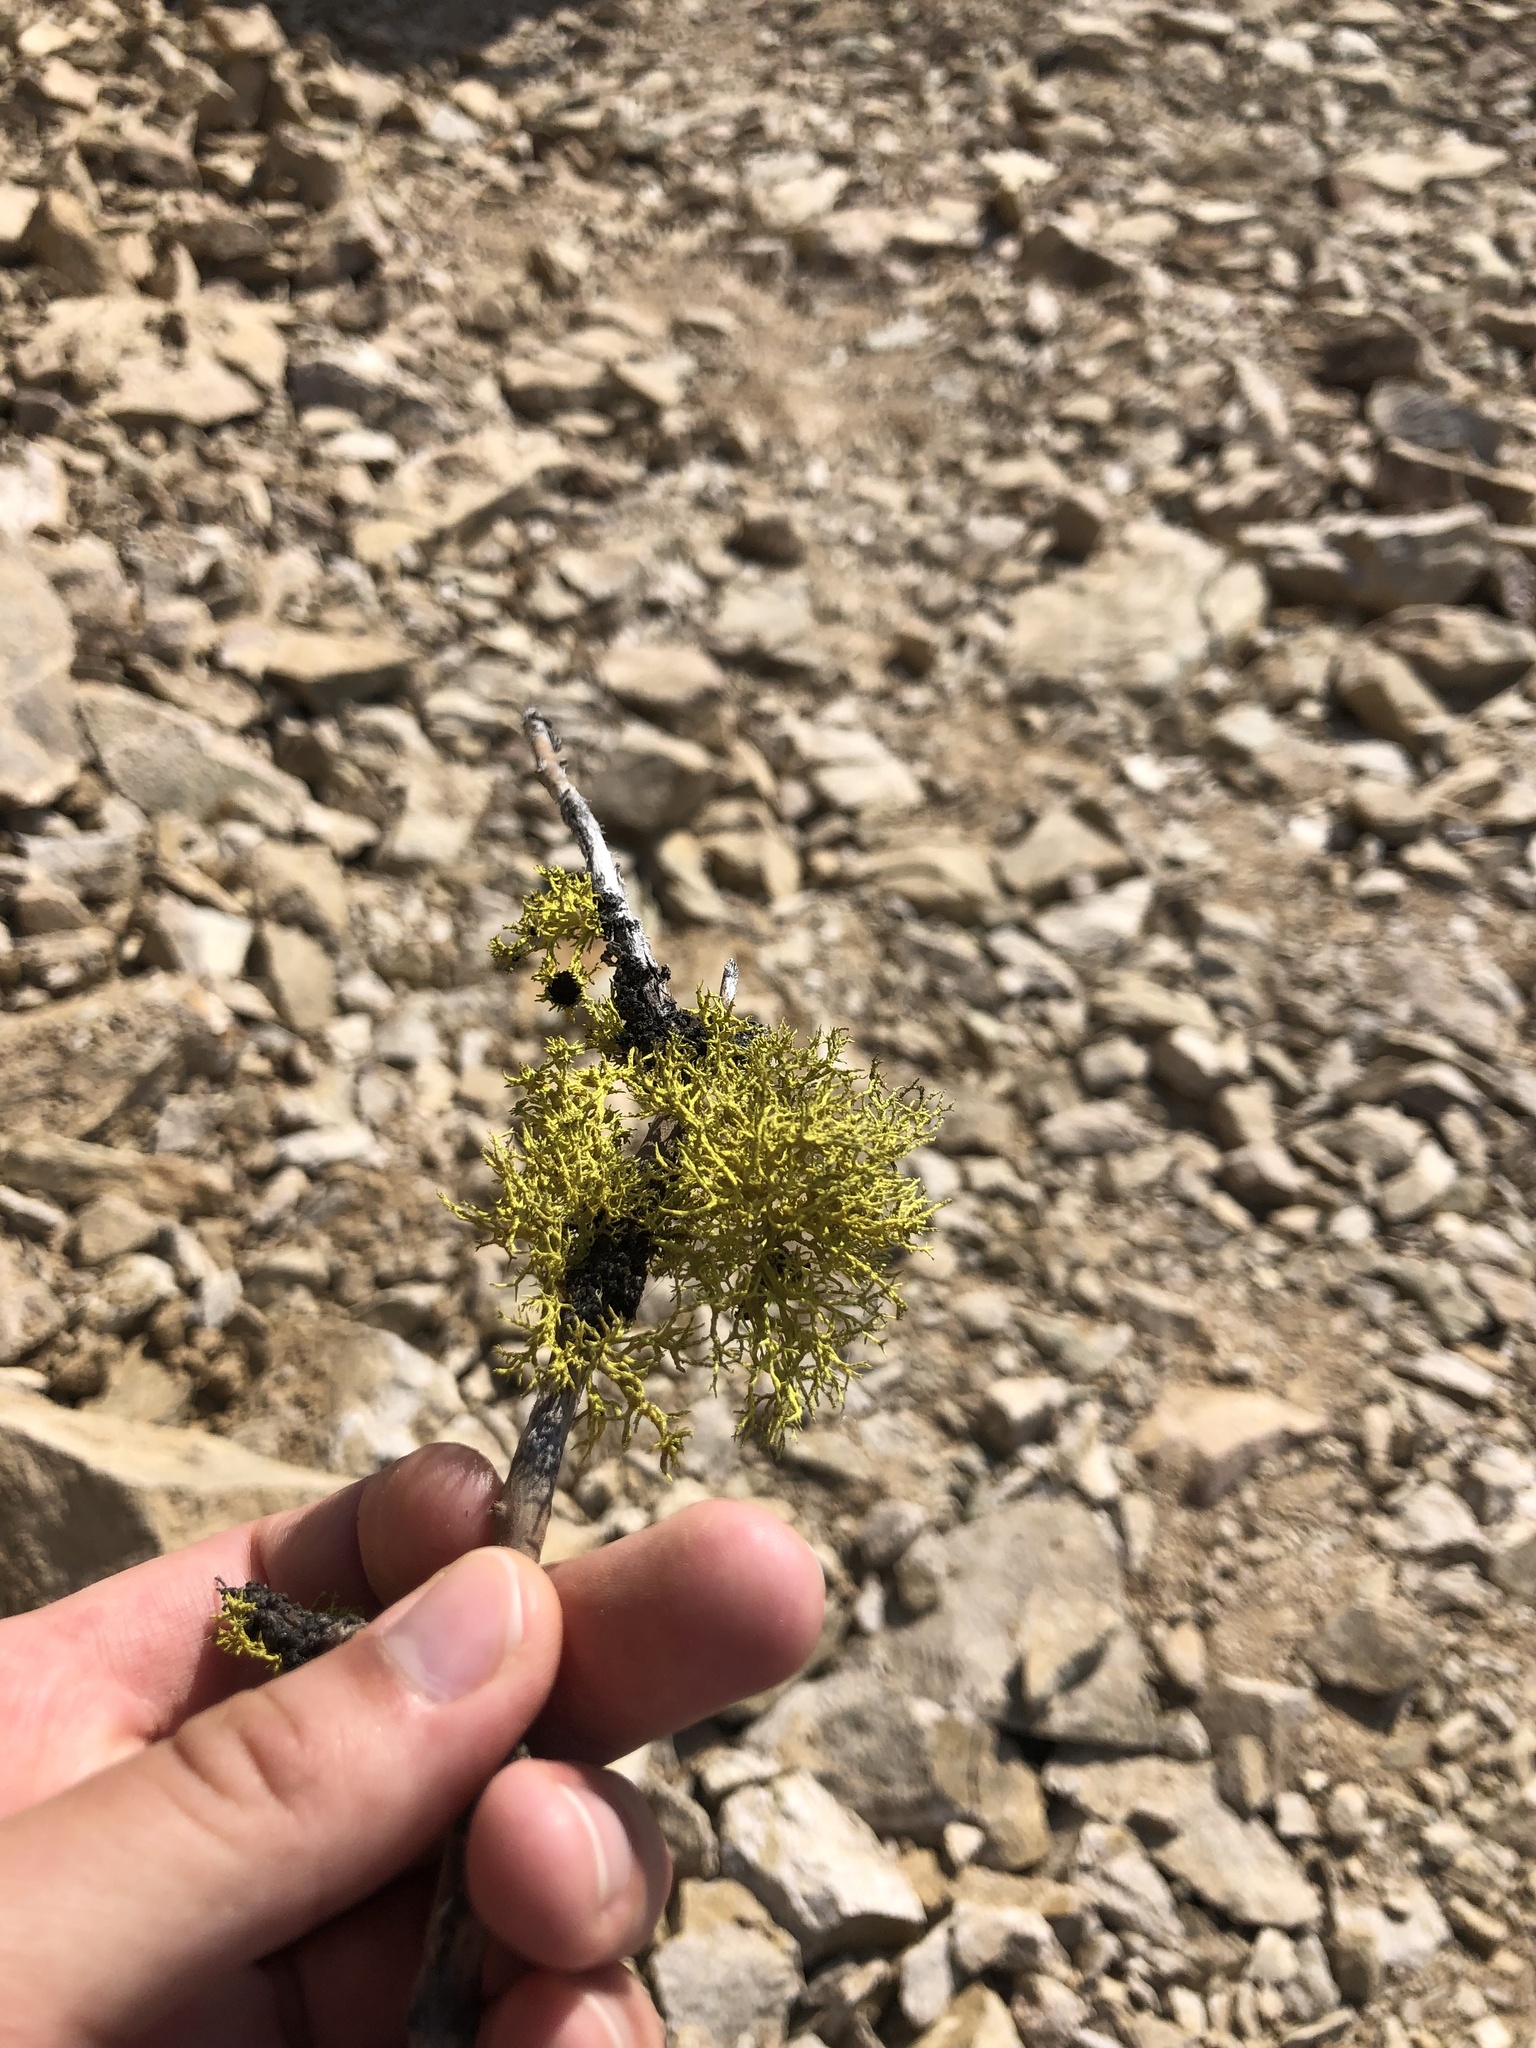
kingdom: Fungi
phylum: Ascomycota
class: Lecanoromycetes
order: Lecanorales
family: Parmeliaceae
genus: Letharia
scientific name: Letharia vulpina
